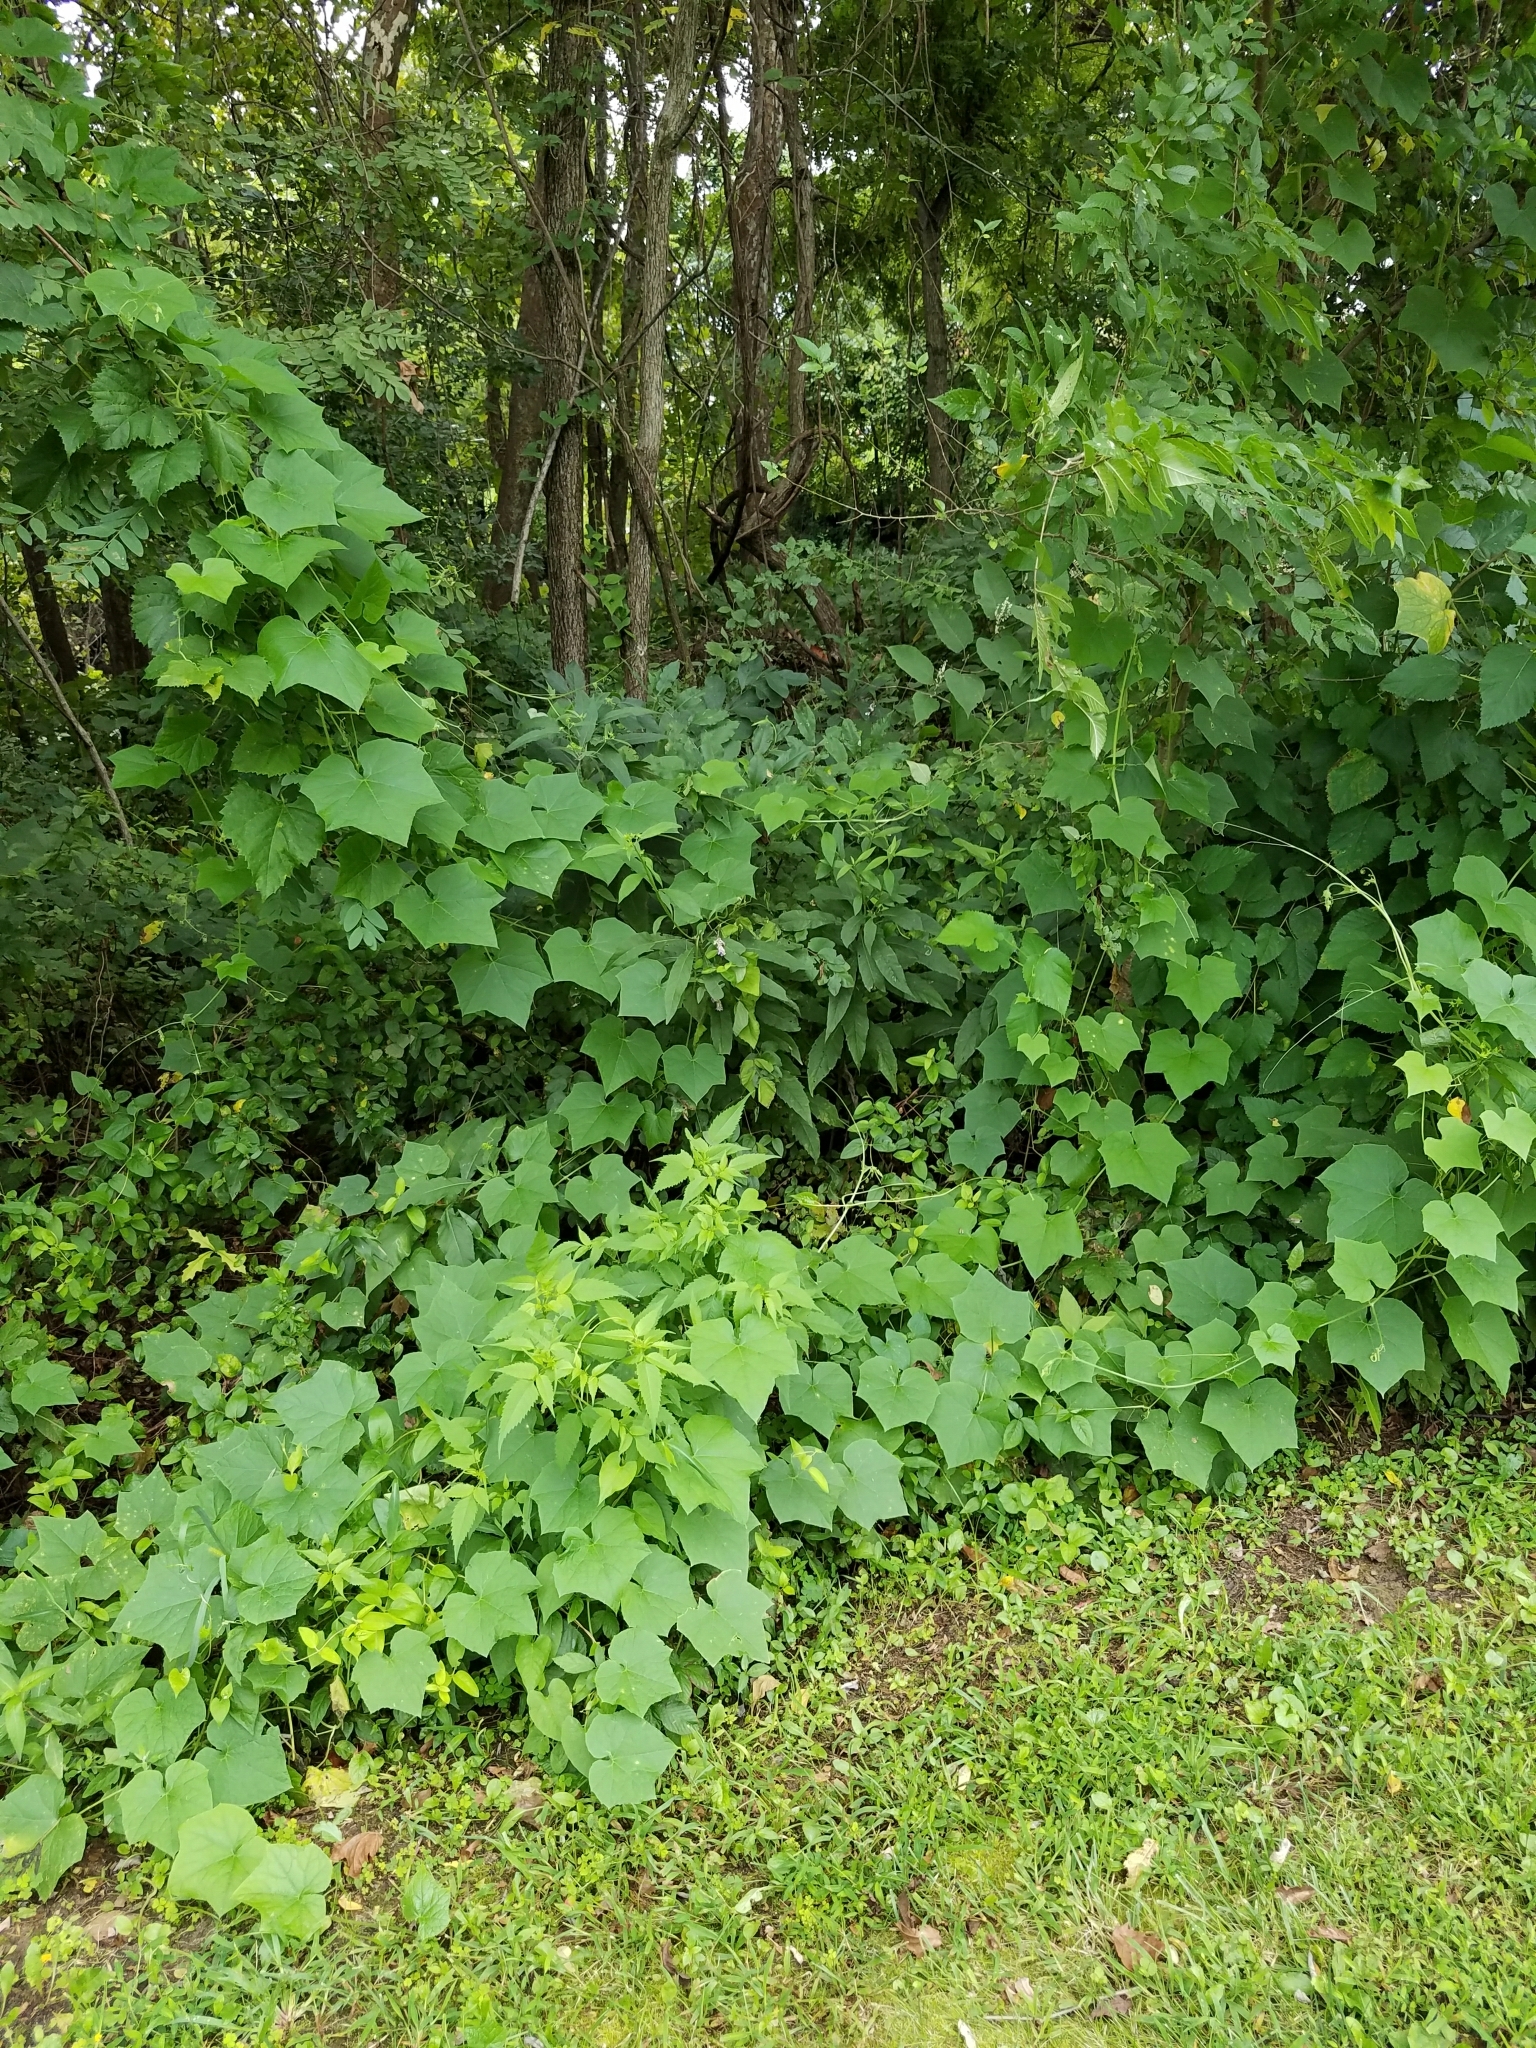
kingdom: Plantae
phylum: Tracheophyta
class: Magnoliopsida
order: Cucurbitales
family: Cucurbitaceae
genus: Sicyos
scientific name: Sicyos angulatus
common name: Angled burr cucumber
